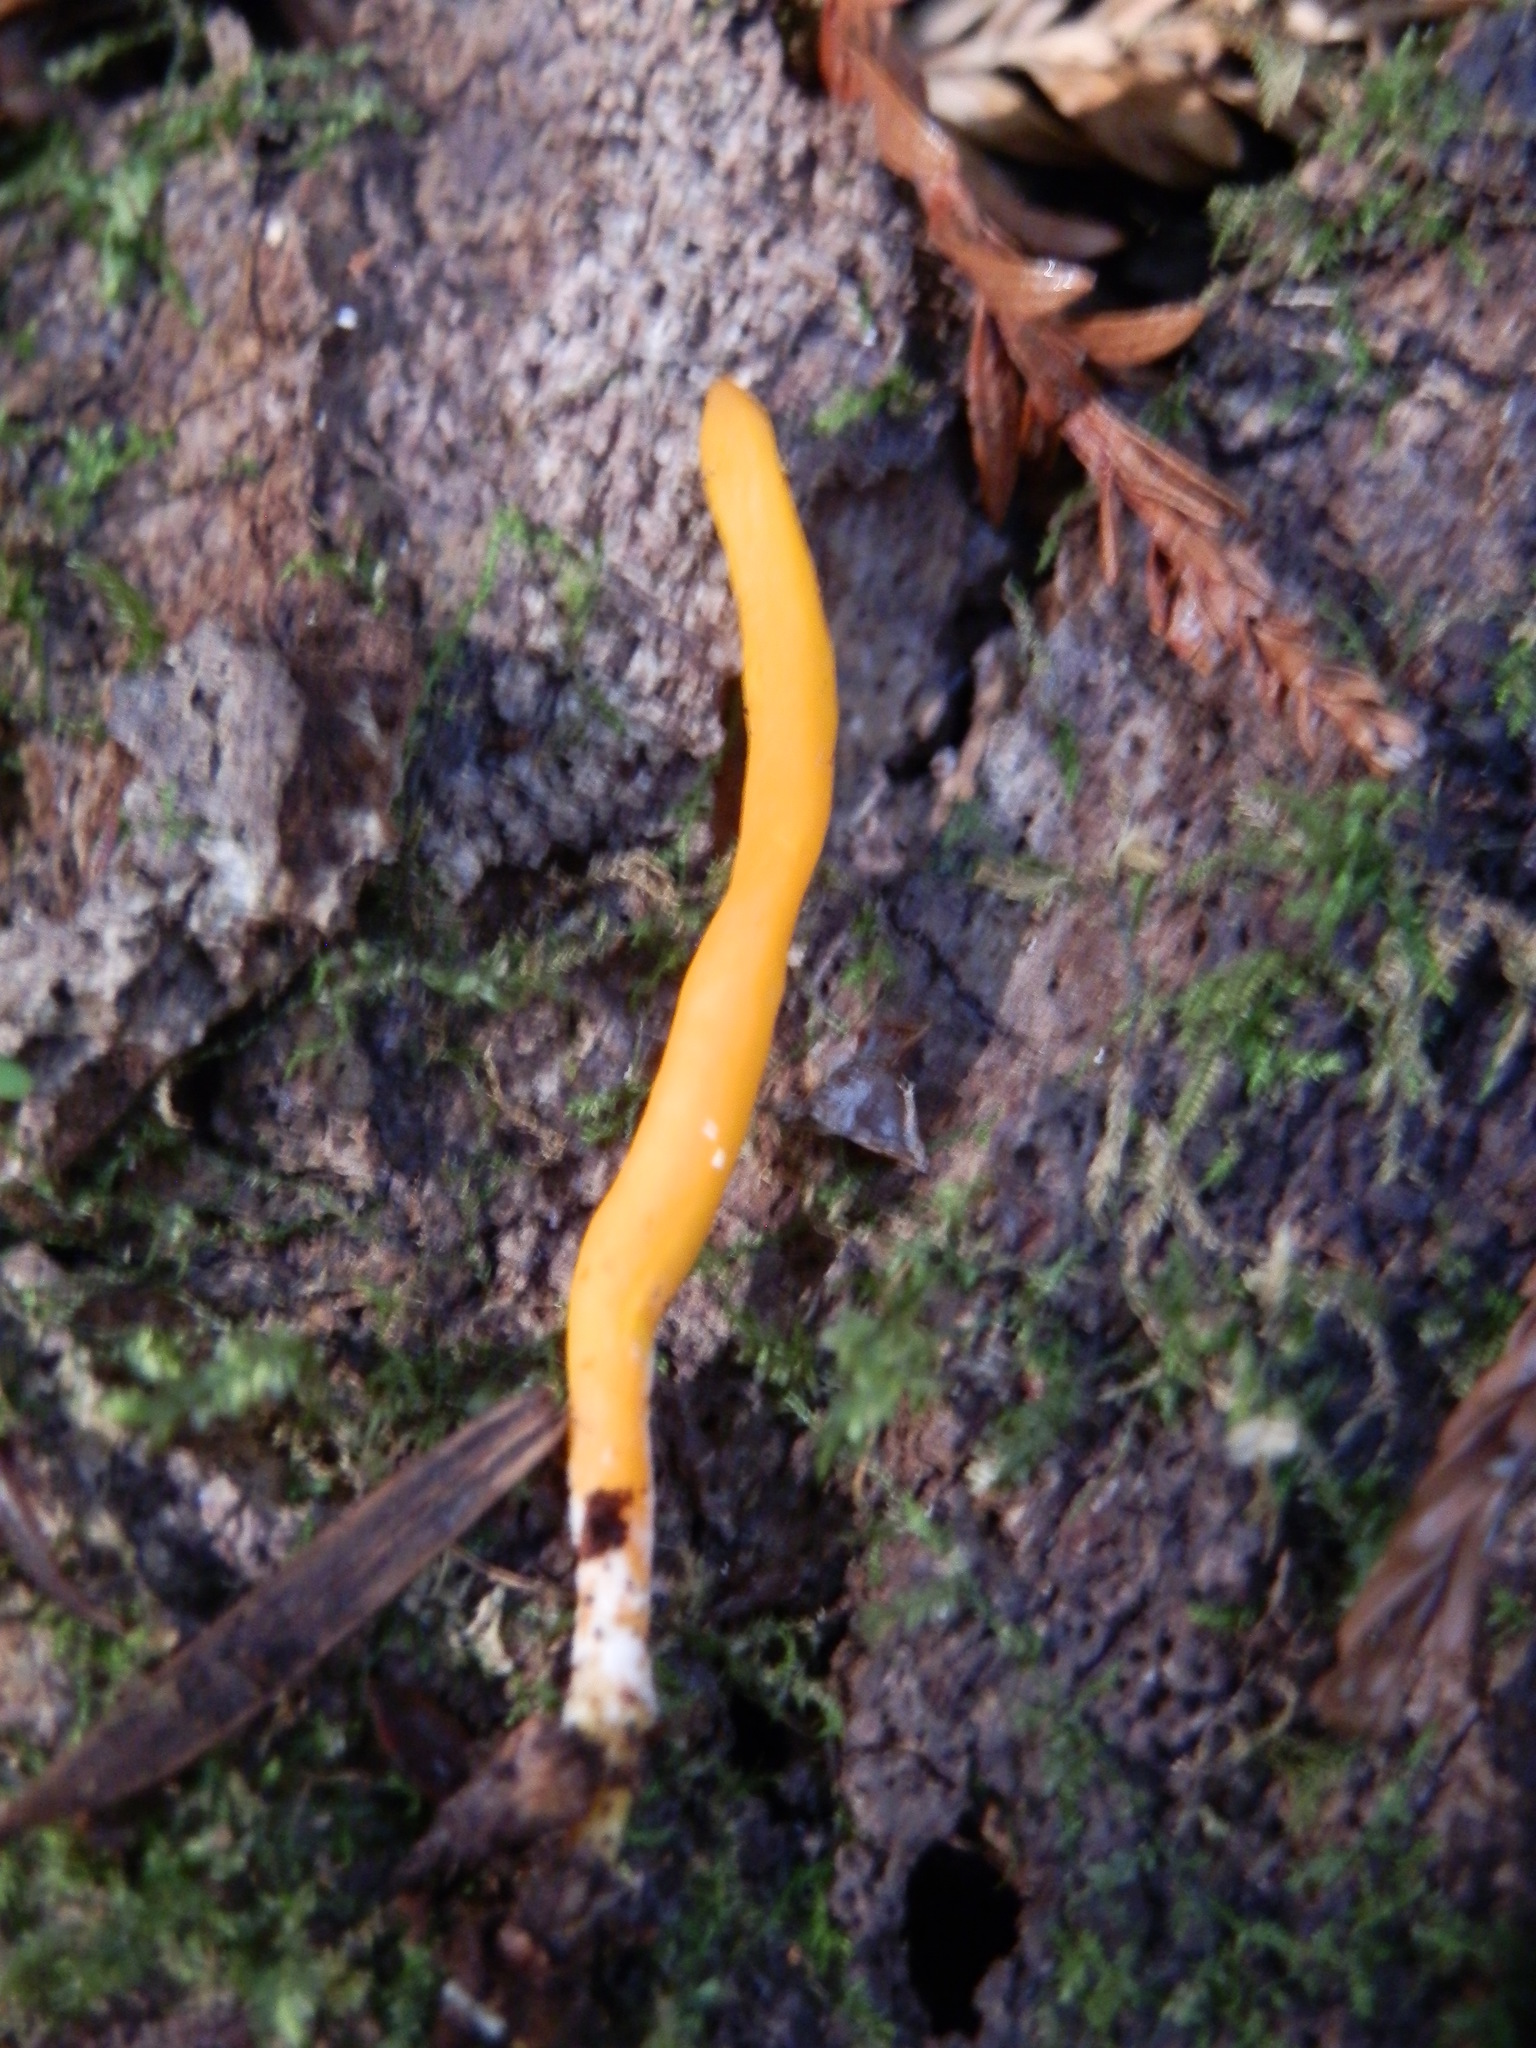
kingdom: Fungi
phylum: Basidiomycota
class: Agaricomycetes
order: Agaricales
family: Clavariaceae
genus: Clavulinopsis
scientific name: Clavulinopsis helvola
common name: Yellow club
